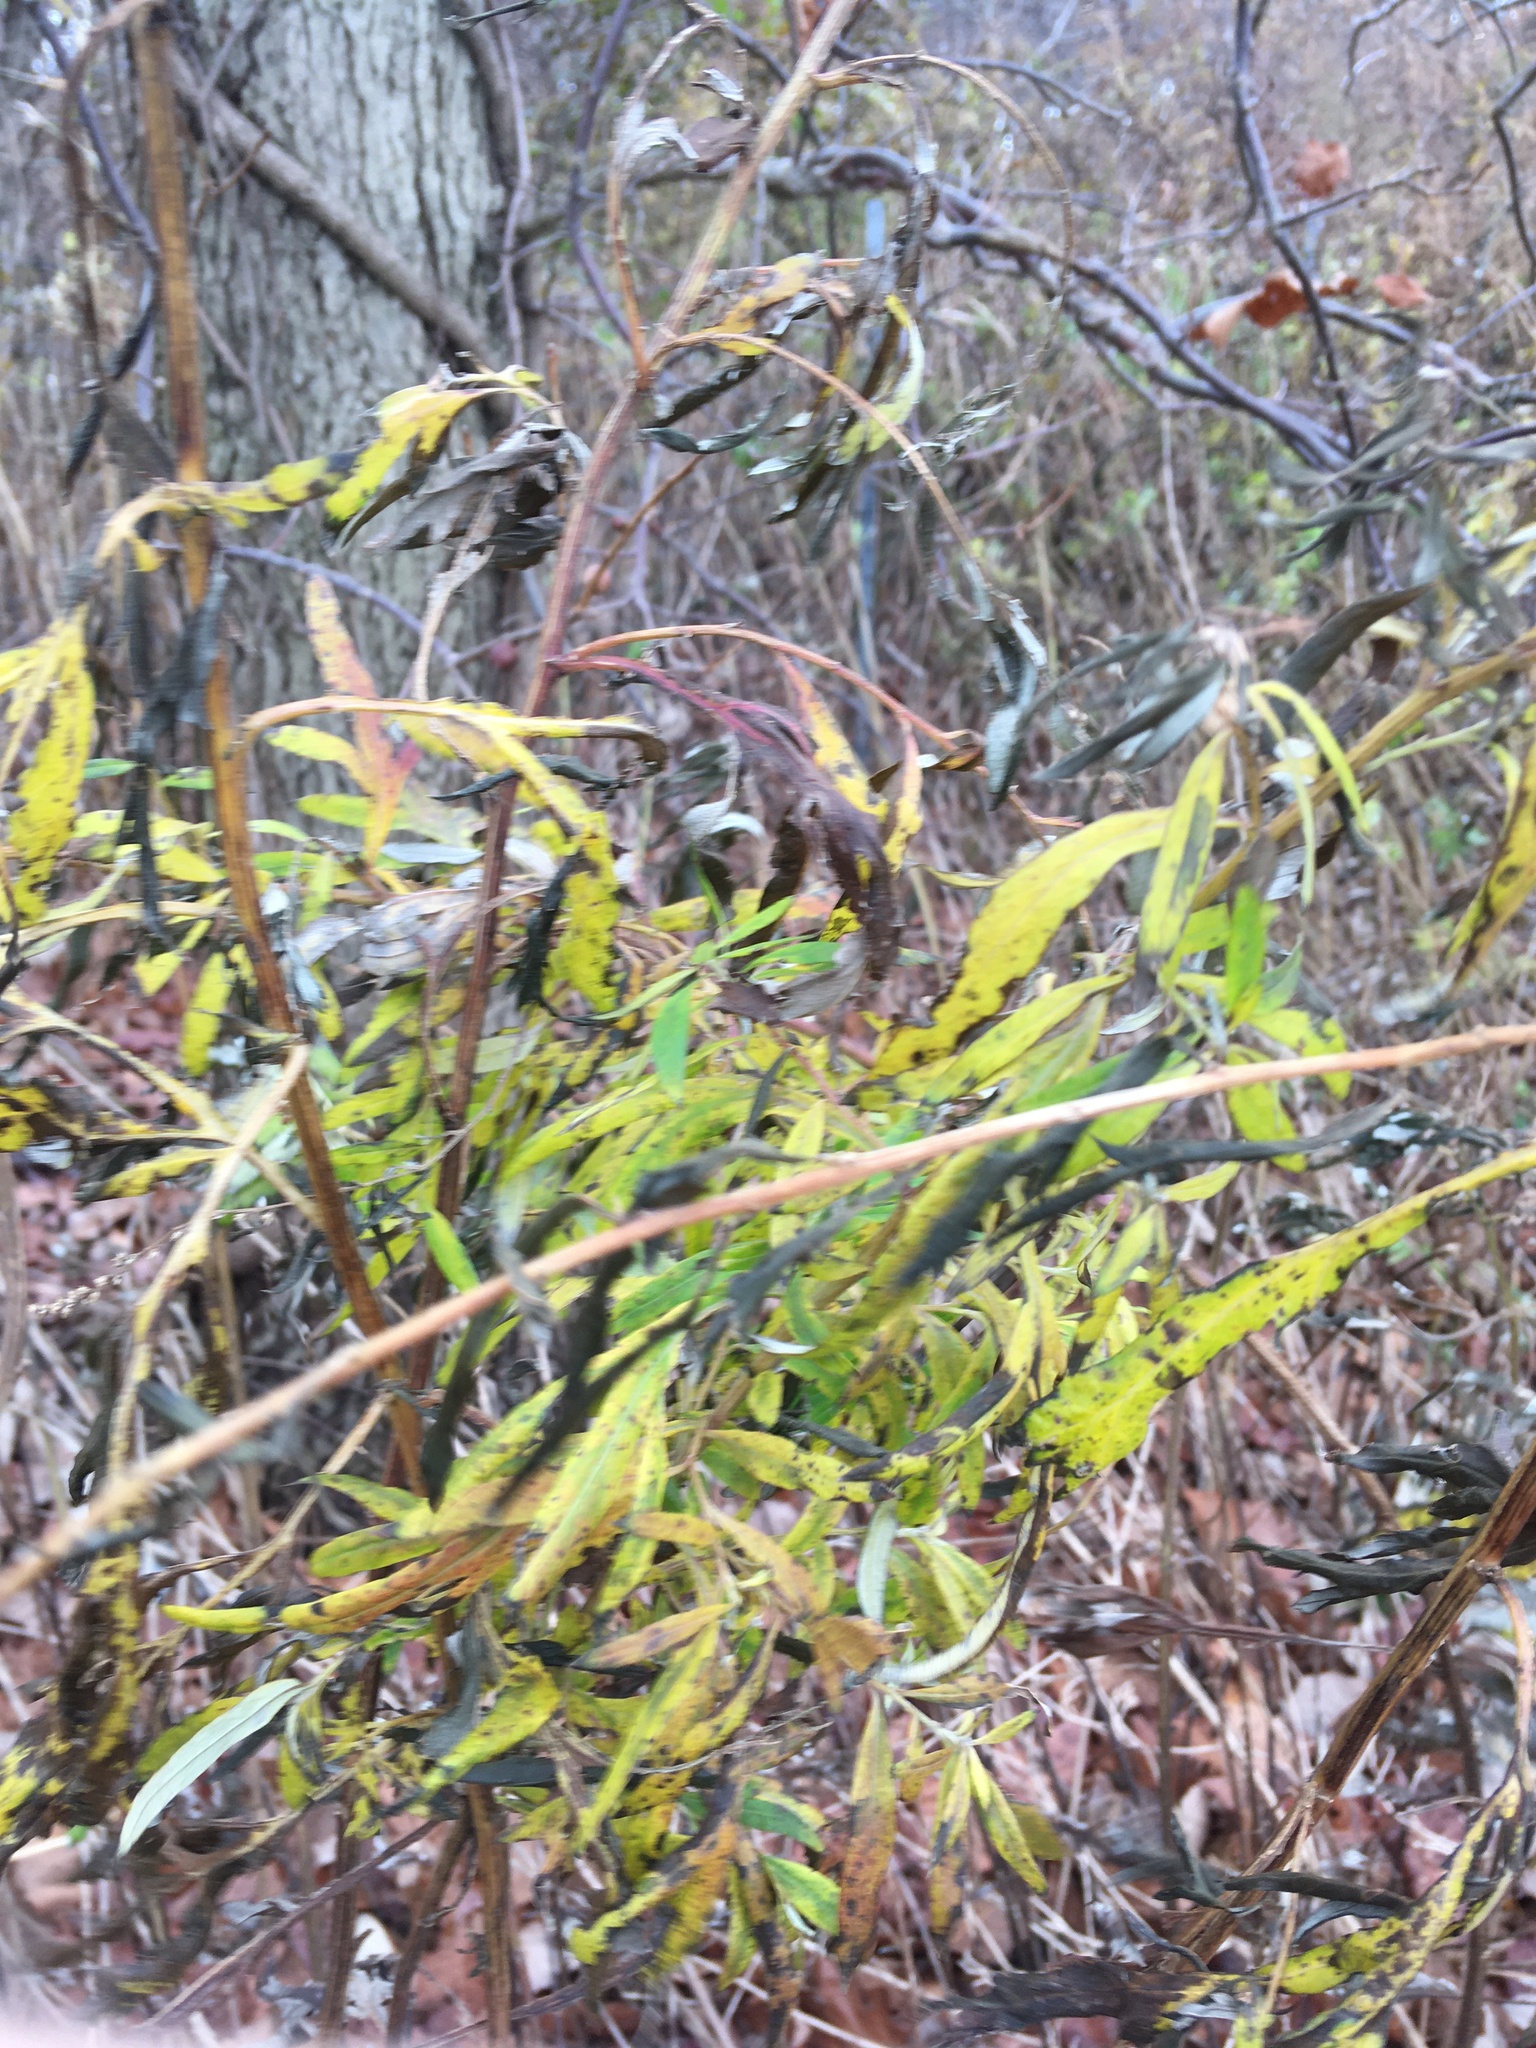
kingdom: Plantae
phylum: Tracheophyta
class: Magnoliopsida
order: Asterales
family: Asteraceae
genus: Artemisia
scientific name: Artemisia vulgaris
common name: Mugwort
